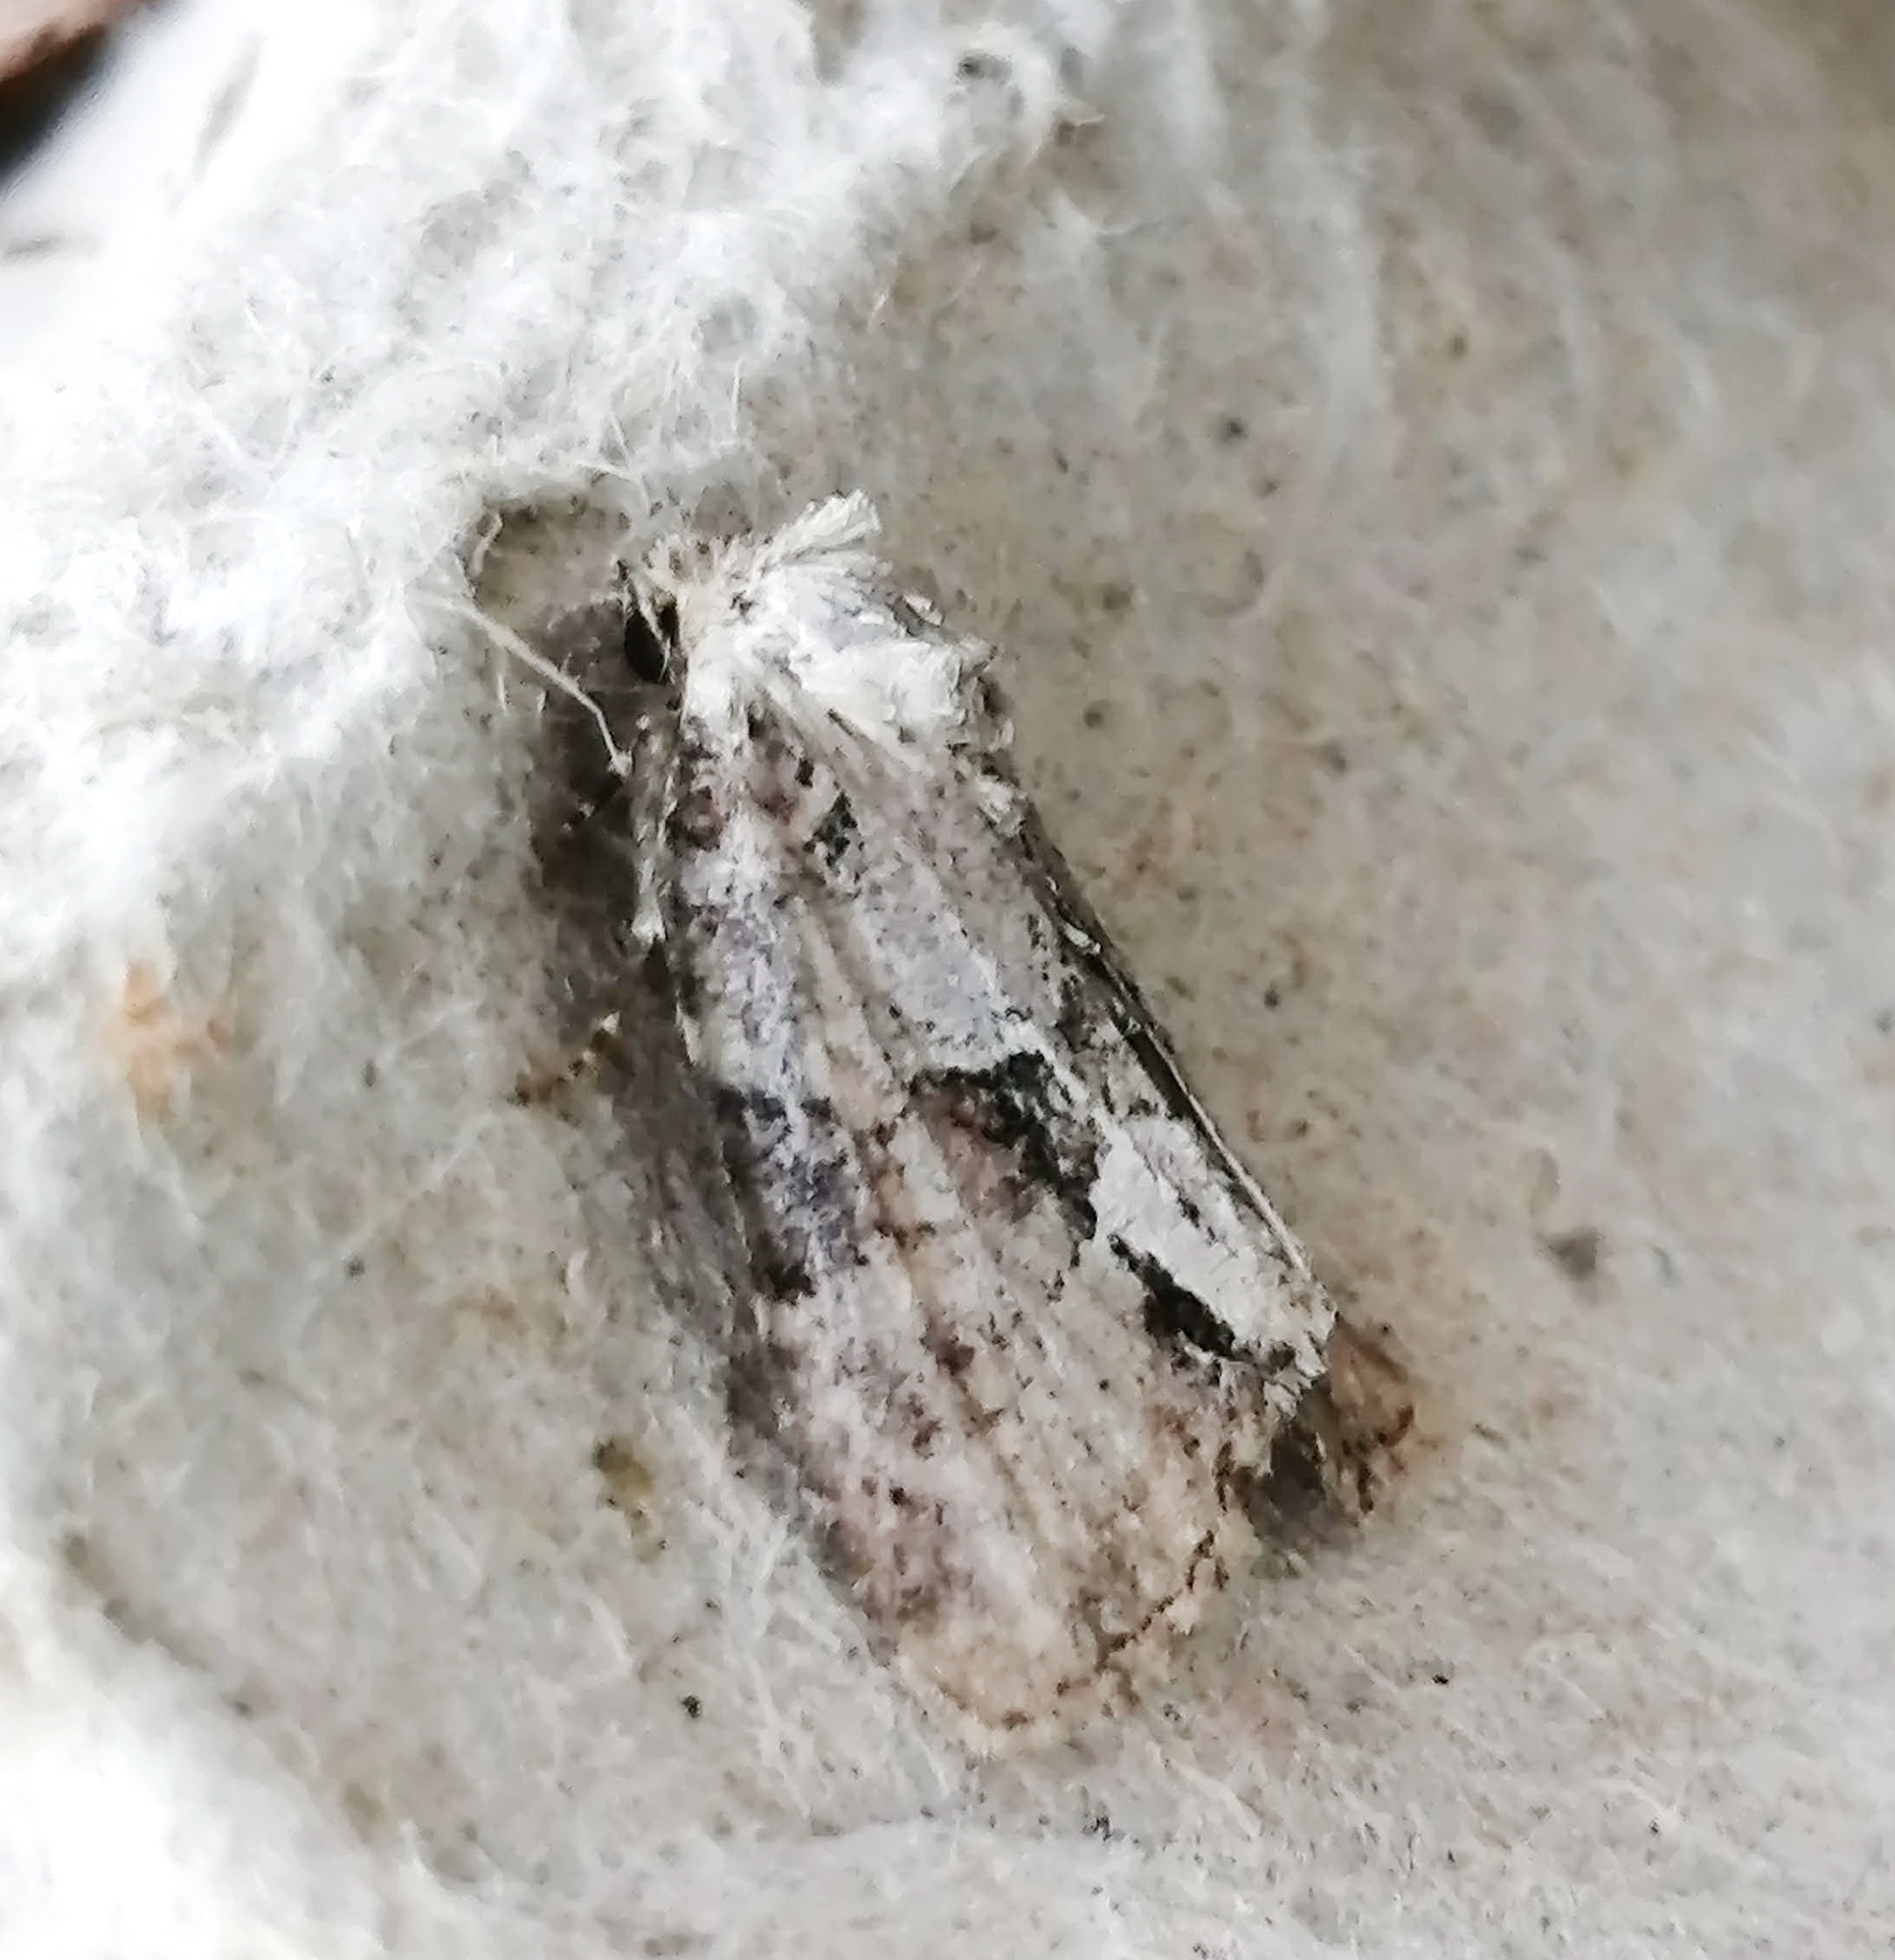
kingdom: Animalia
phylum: Arthropoda
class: Insecta
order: Lepidoptera
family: Noctuidae
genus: Neoligia
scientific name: Neoligia exhausta
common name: Exhausted brocade
